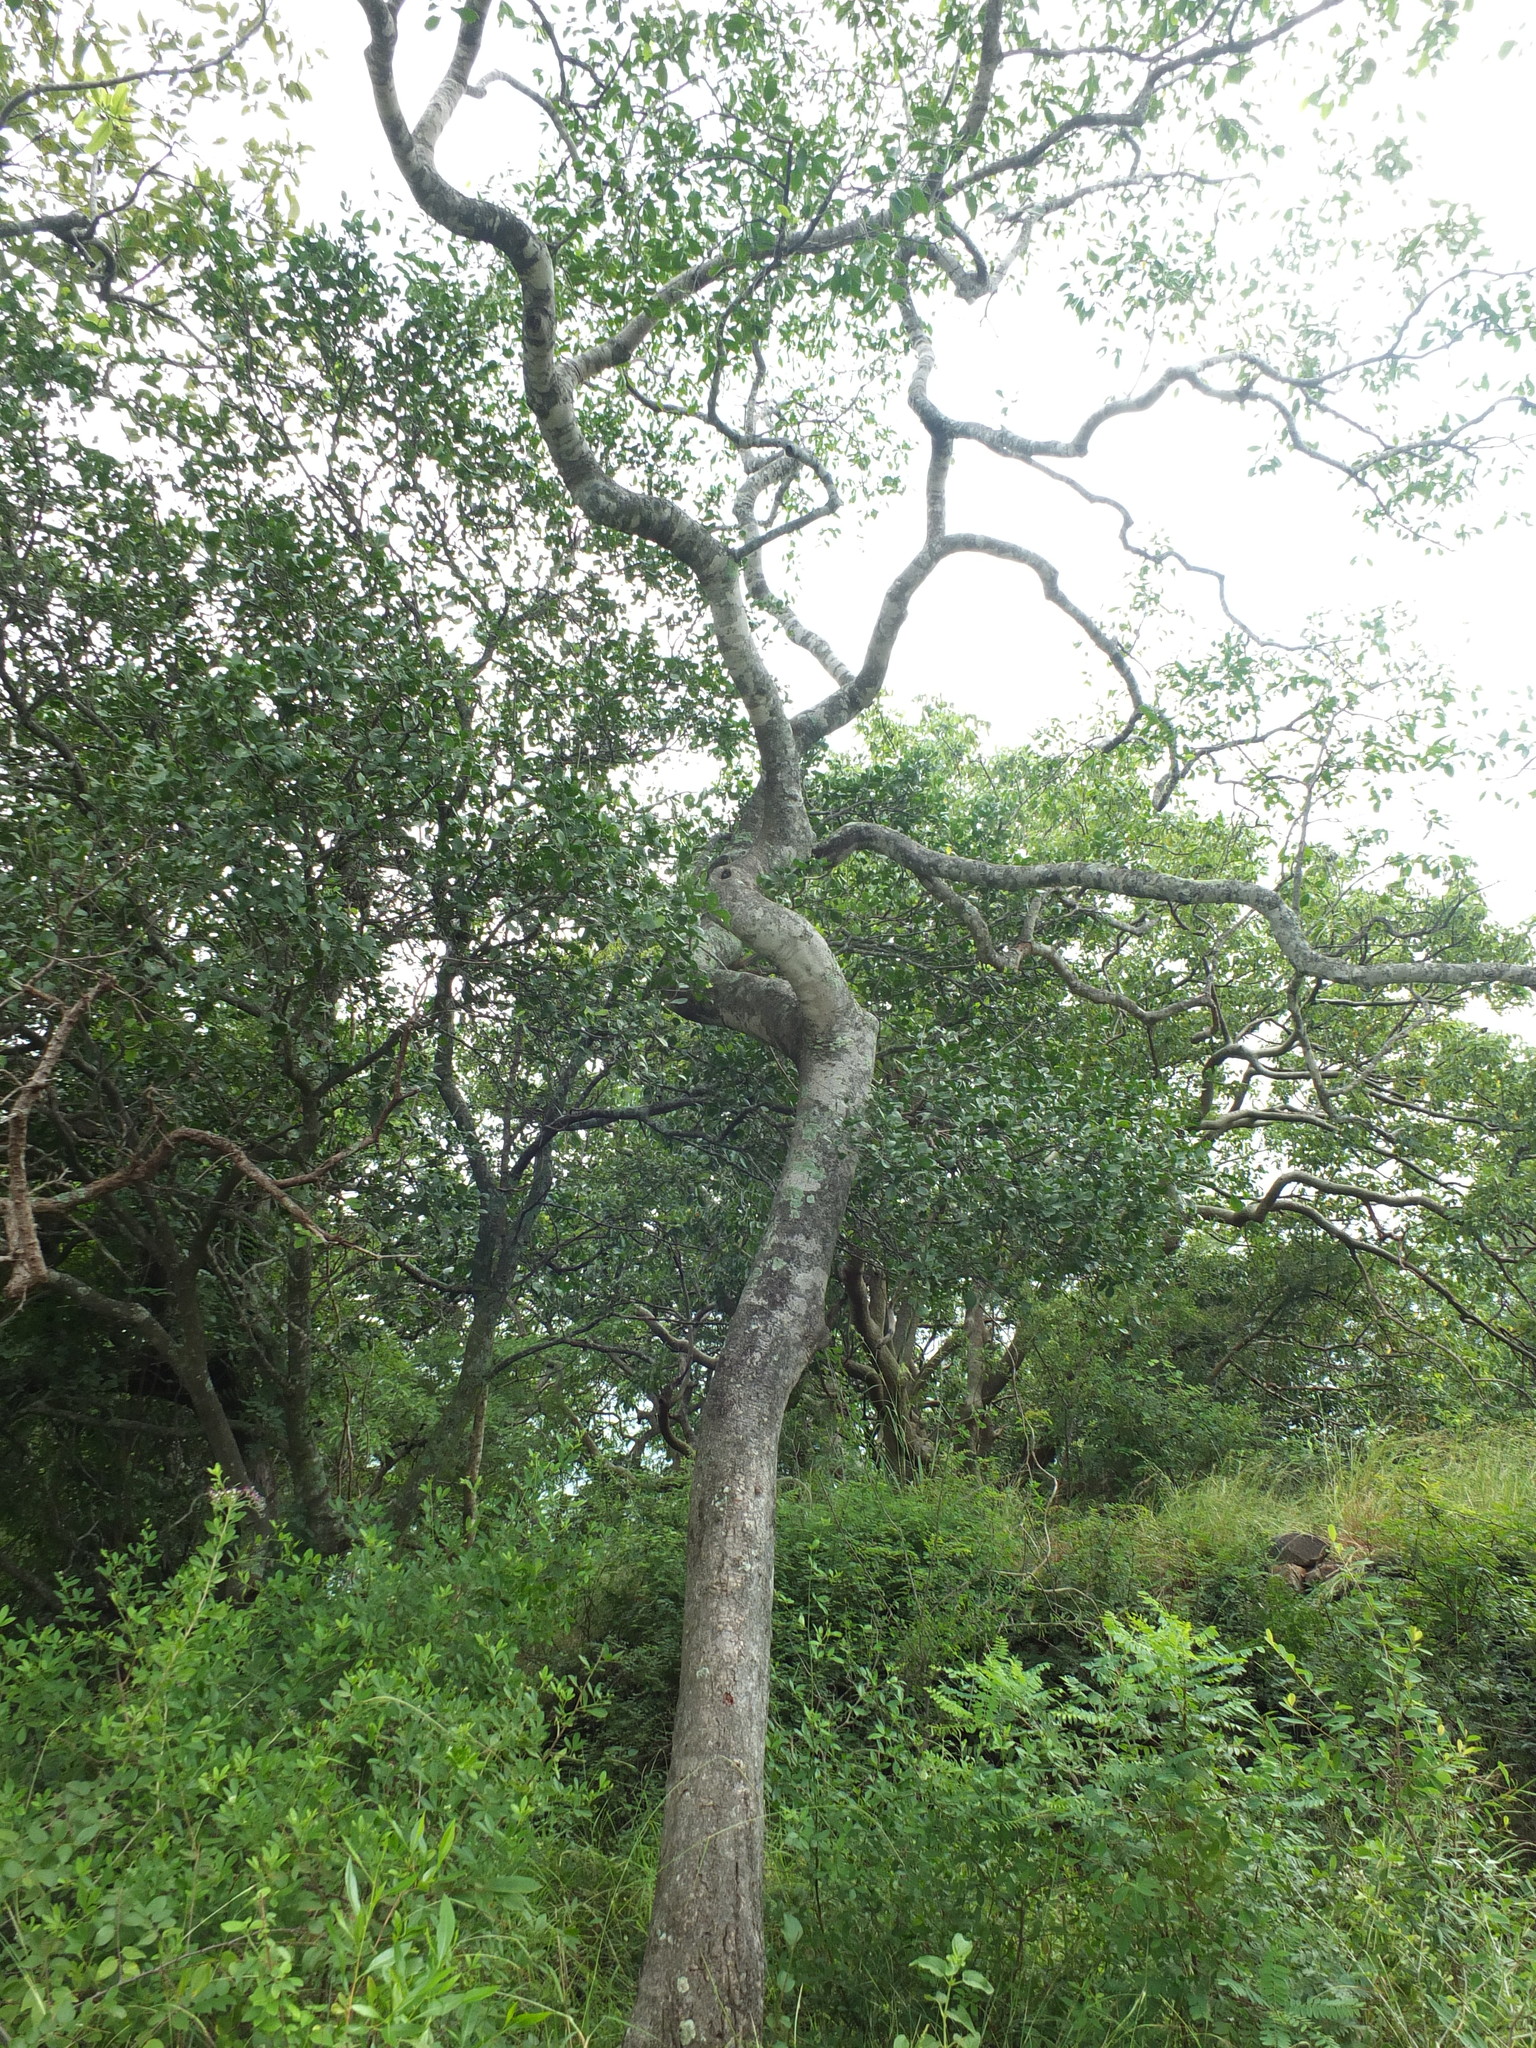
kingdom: Plantae
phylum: Tracheophyta
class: Magnoliopsida
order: Celastrales
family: Celastraceae
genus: Elaeodendron
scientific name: Elaeodendron glaucum
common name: Ceylon-tea
